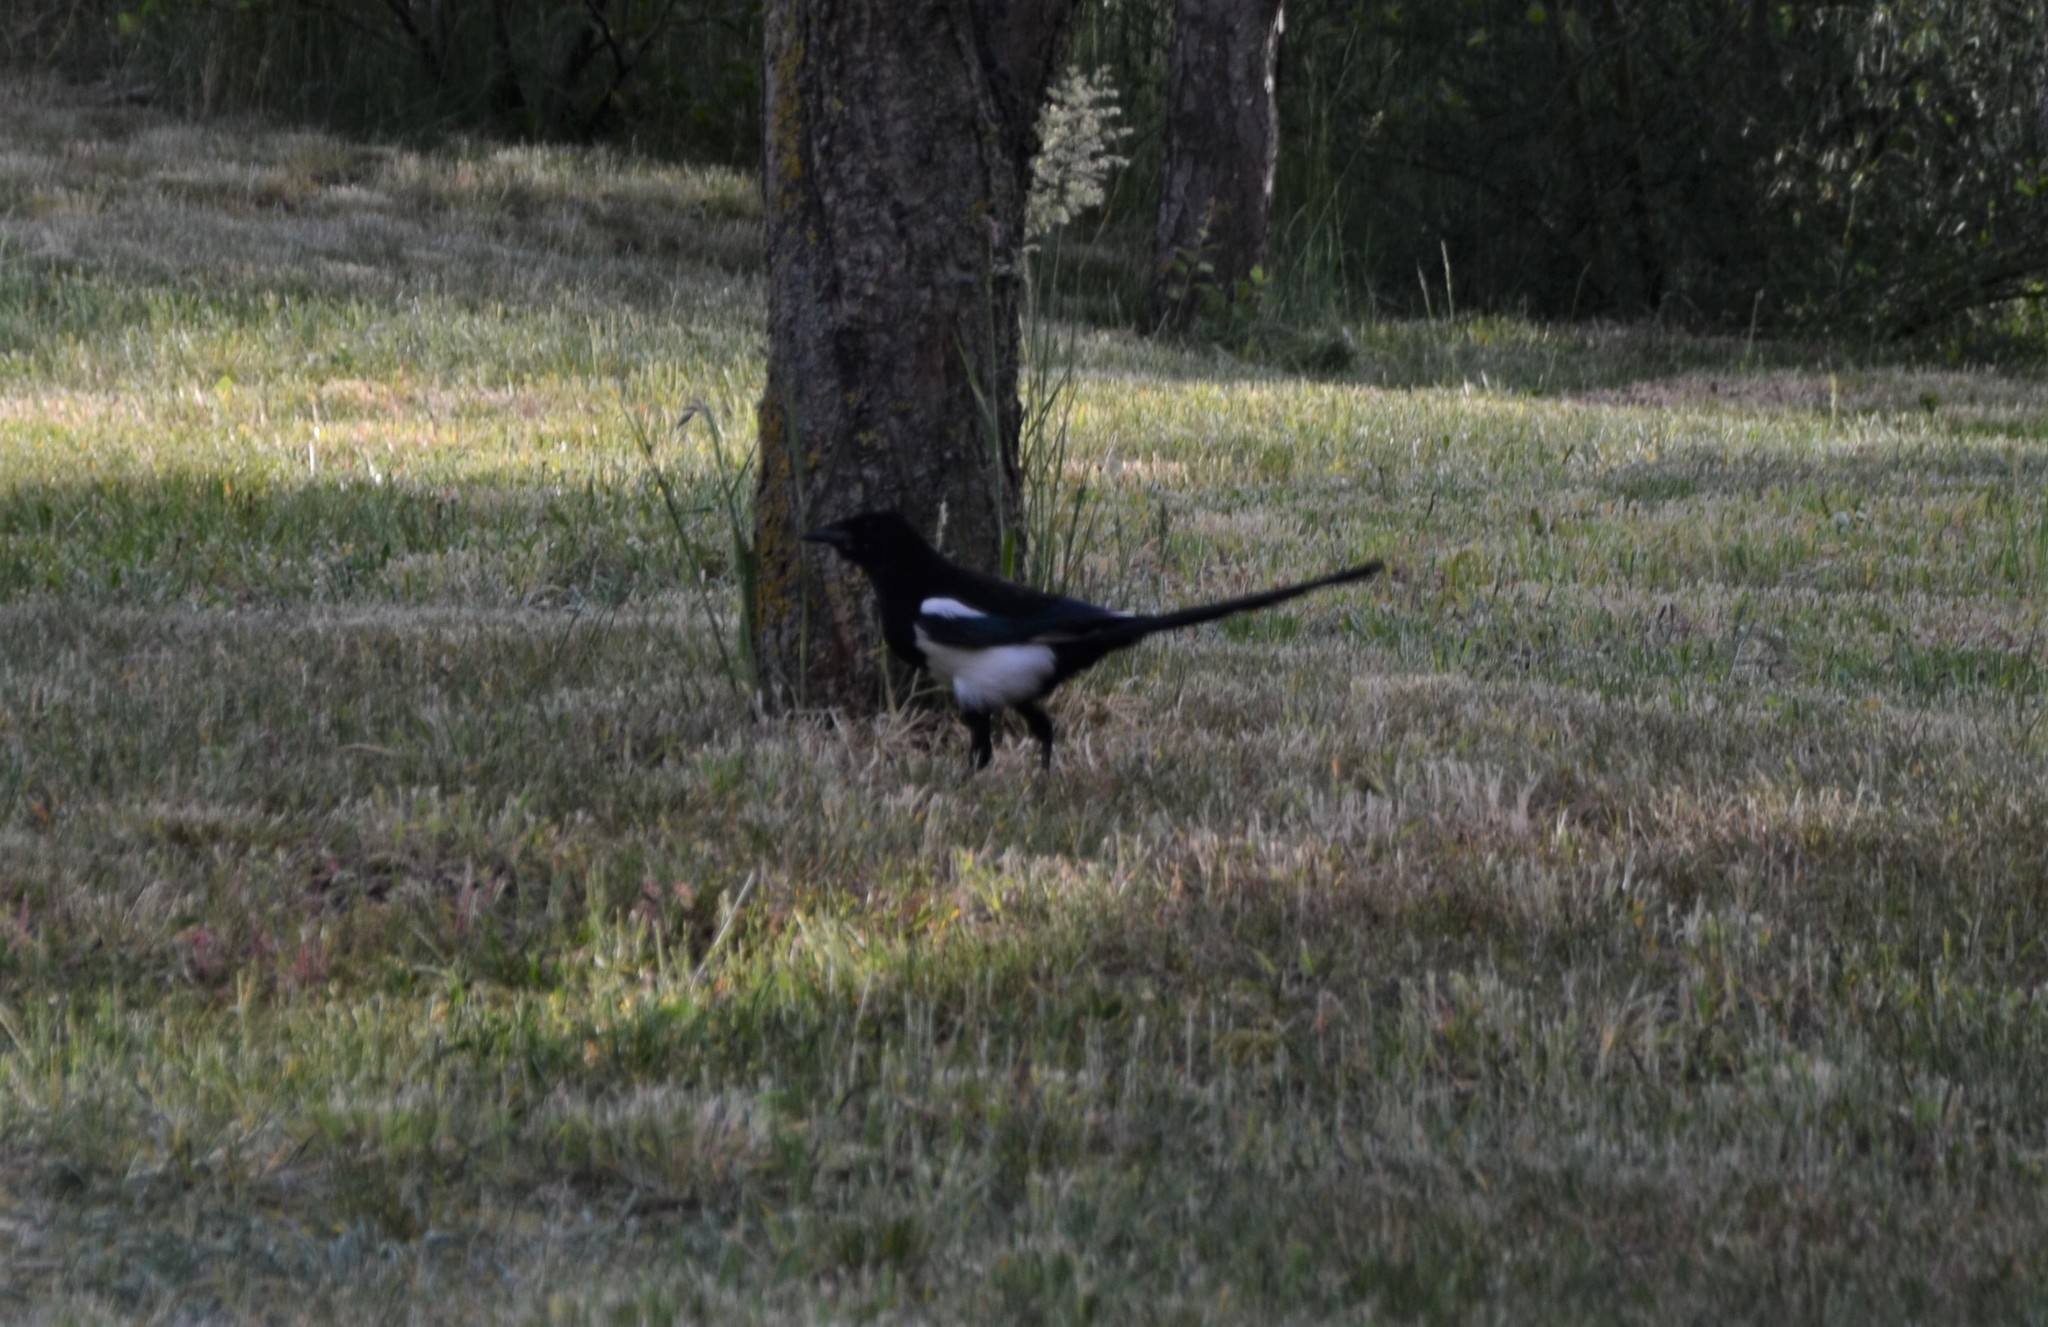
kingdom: Animalia
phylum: Chordata
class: Aves
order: Passeriformes
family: Corvidae
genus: Pica
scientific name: Pica pica
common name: Eurasian magpie
